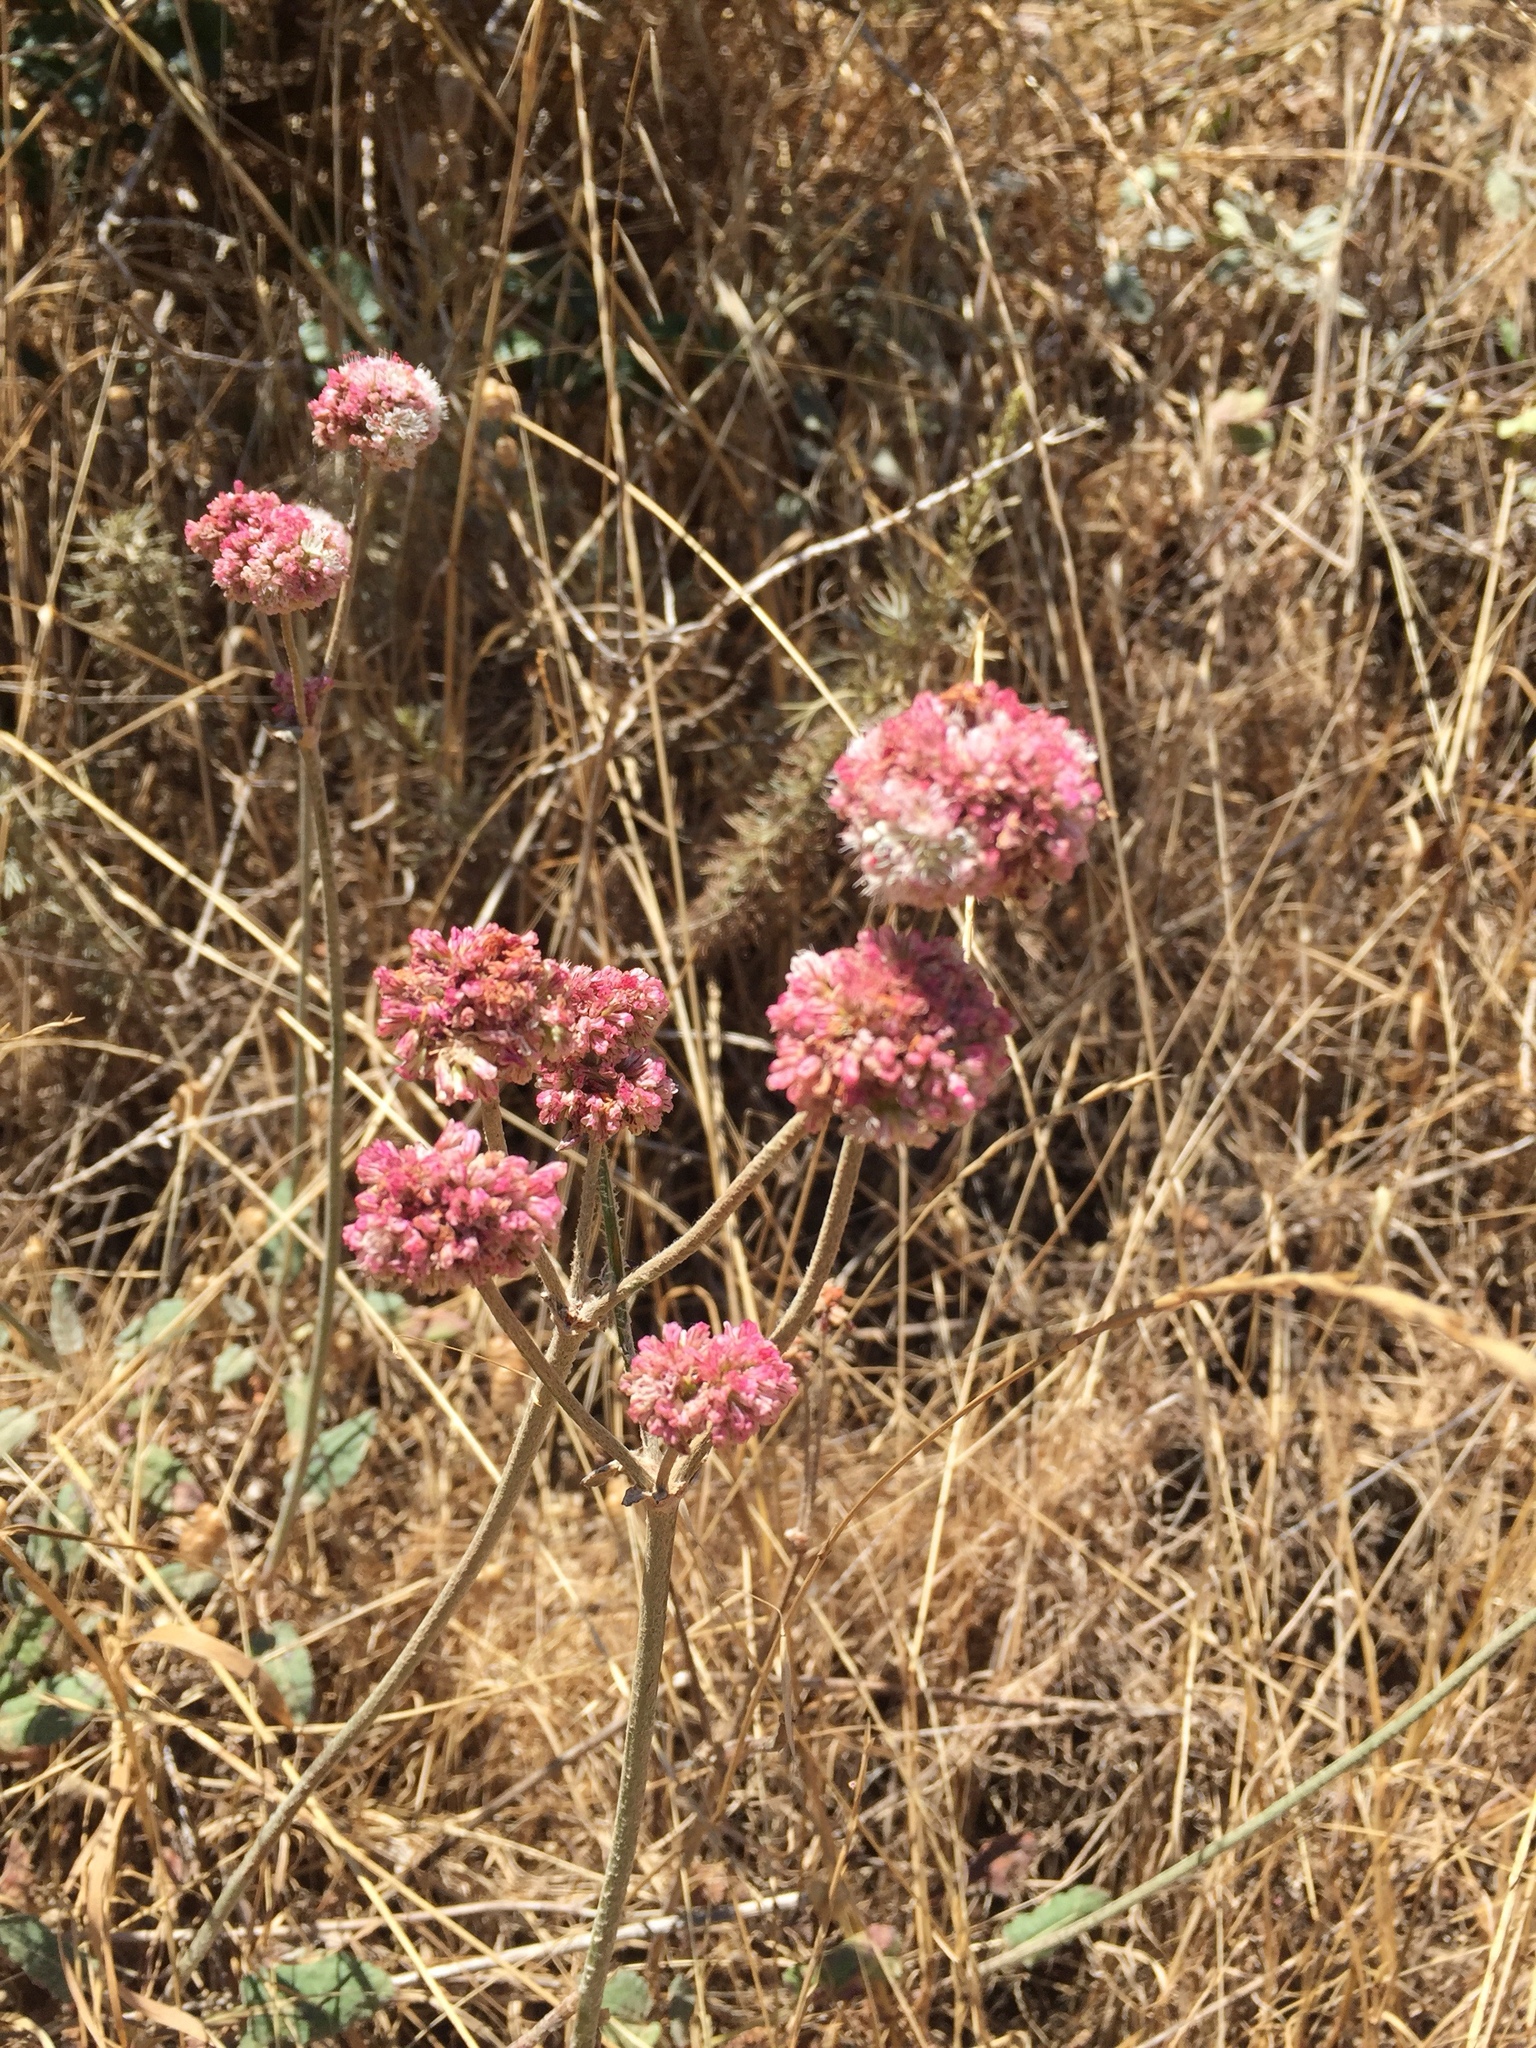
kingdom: Plantae
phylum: Tracheophyta
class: Magnoliopsida
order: Caryophyllales
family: Polygonaceae
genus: Eriogonum
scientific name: Eriogonum nudum
